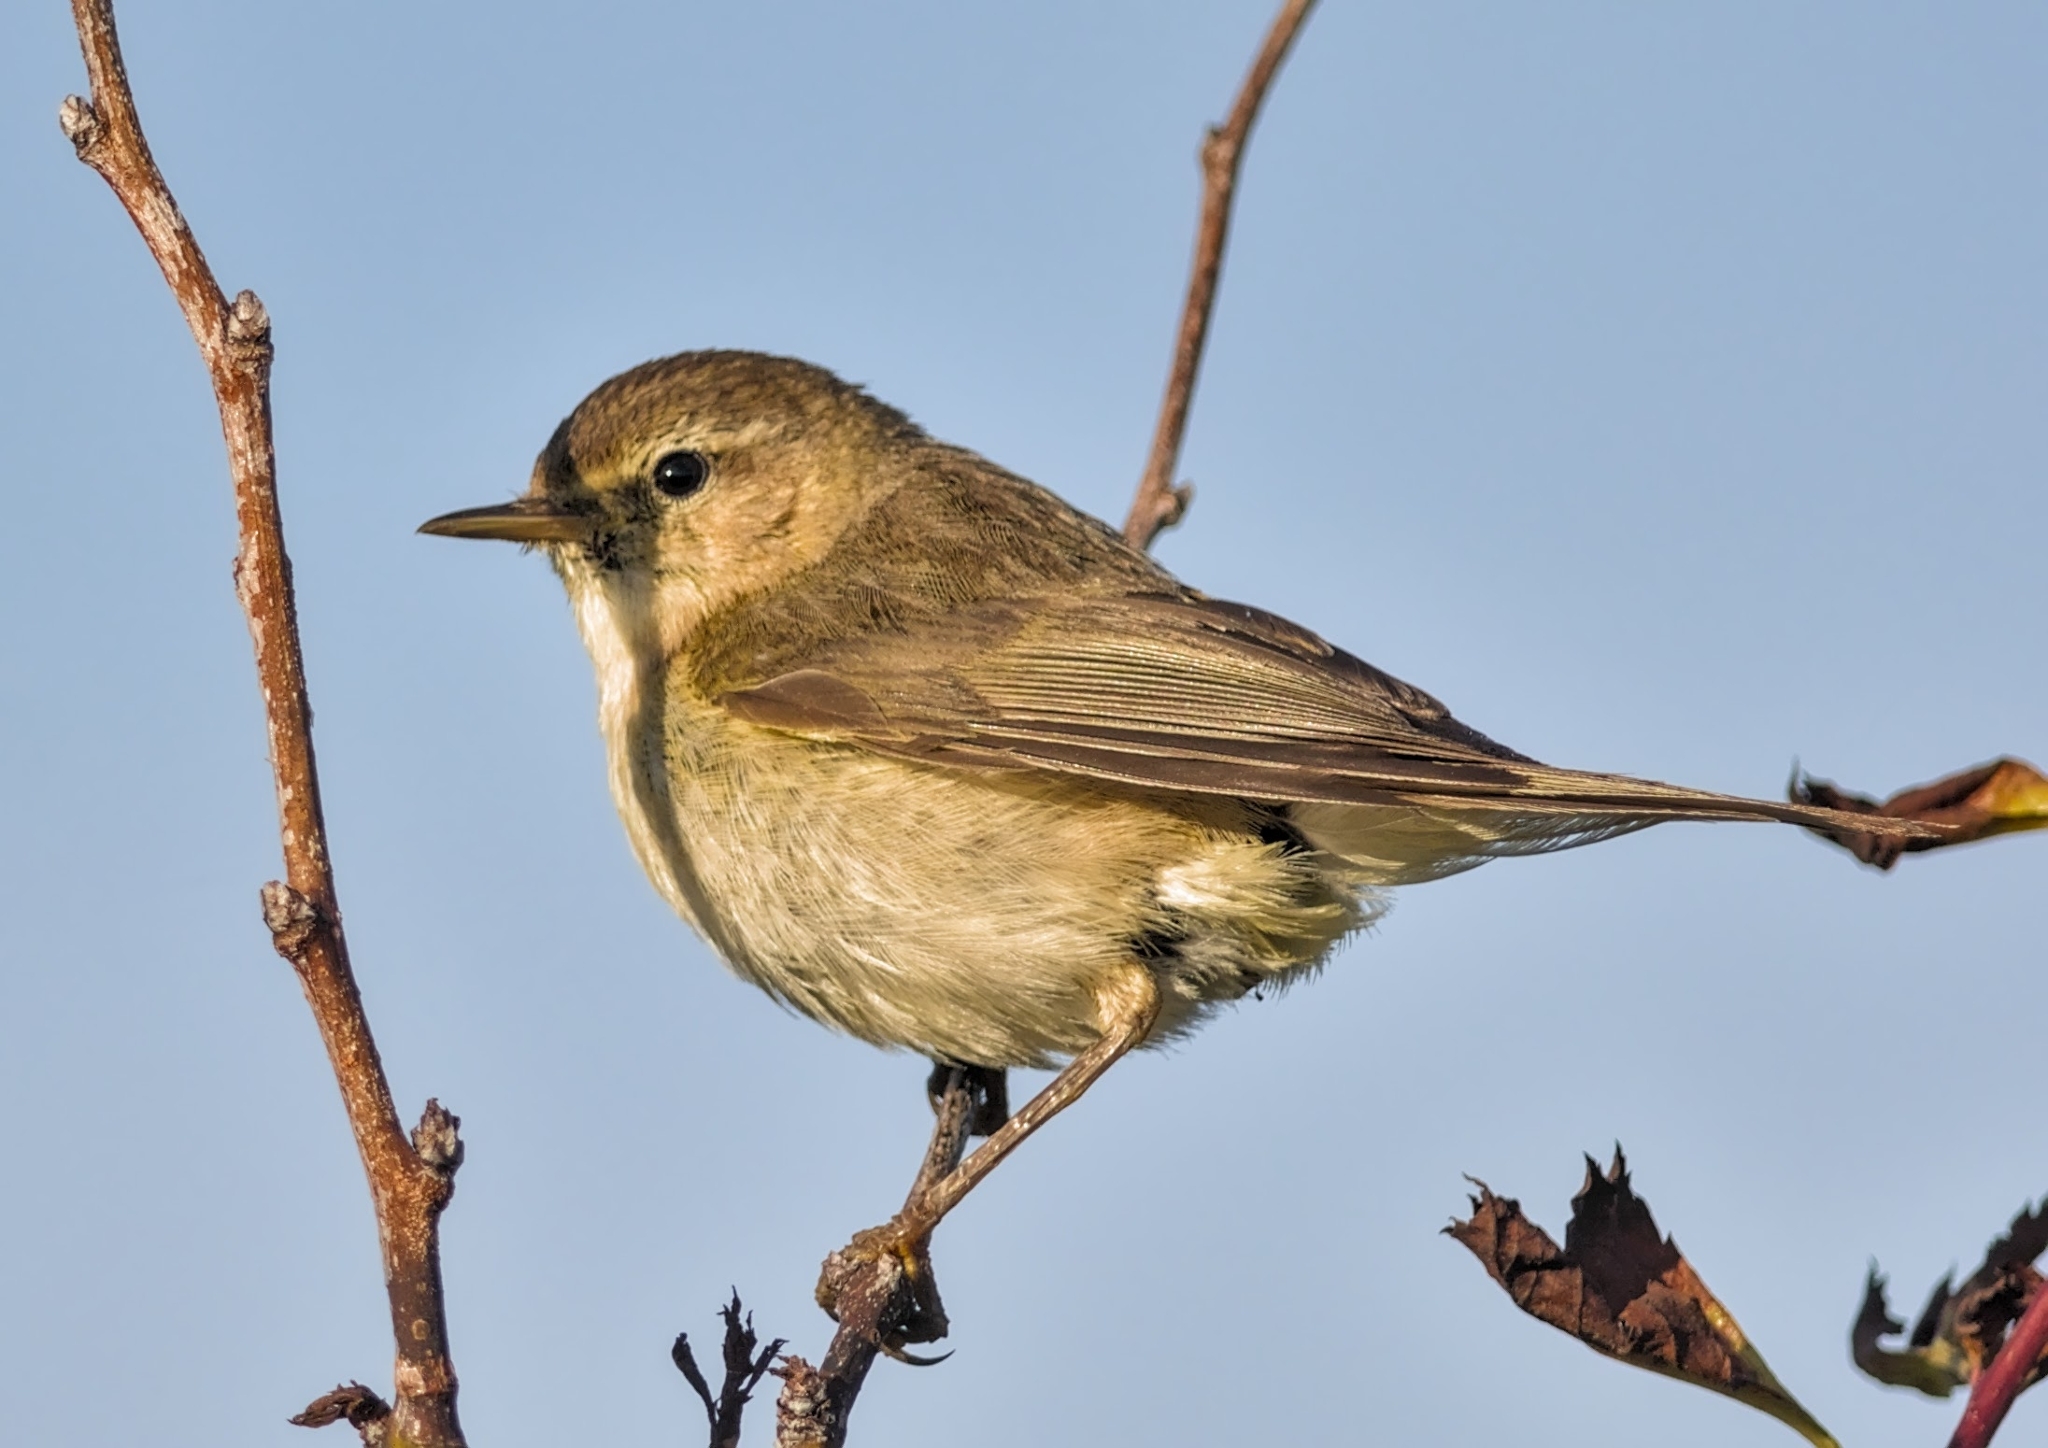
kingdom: Animalia
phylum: Chordata
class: Aves
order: Passeriformes
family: Phylloscopidae
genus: Phylloscopus
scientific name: Phylloscopus collybita
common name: Common chiffchaff
